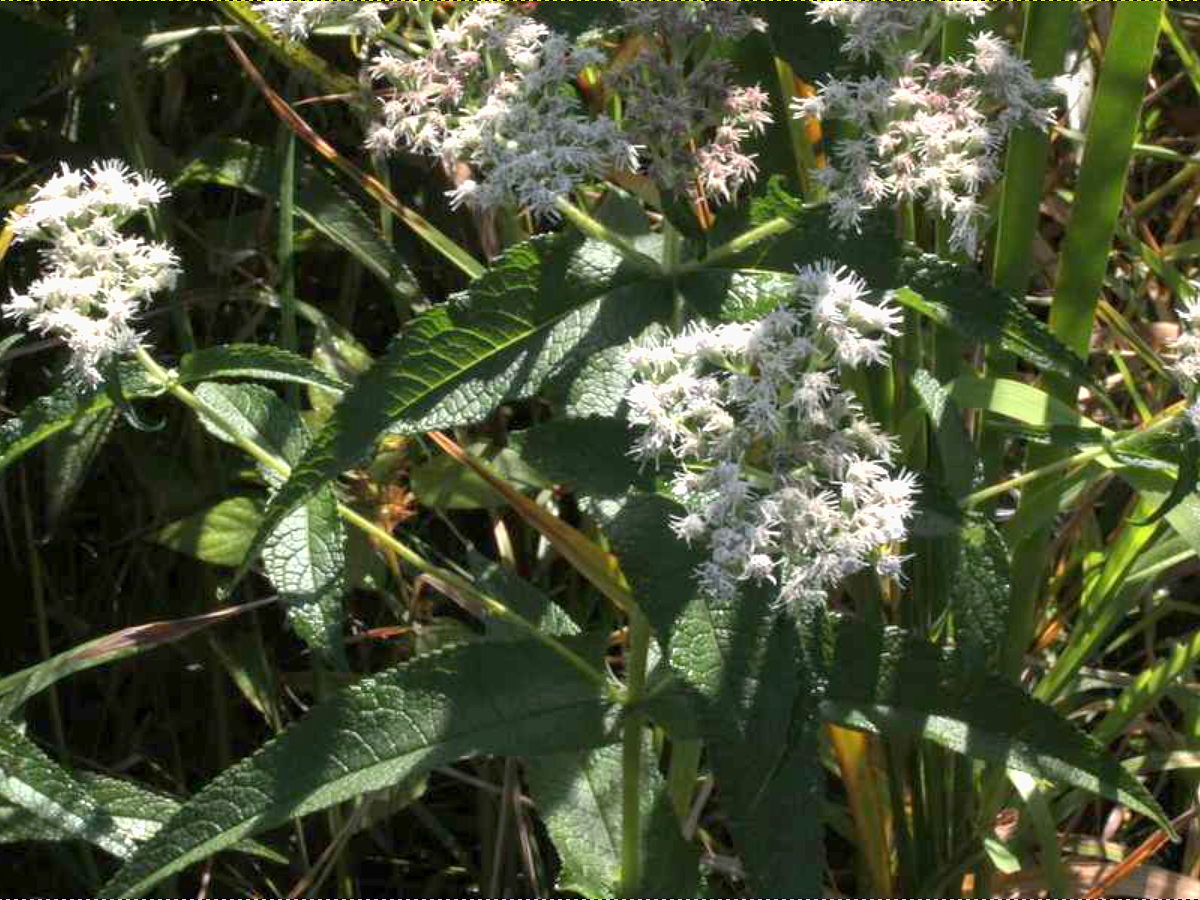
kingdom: Plantae
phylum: Tracheophyta
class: Magnoliopsida
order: Asterales
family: Asteraceae
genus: Eupatorium
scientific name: Eupatorium perfoliatum
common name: Boneset
